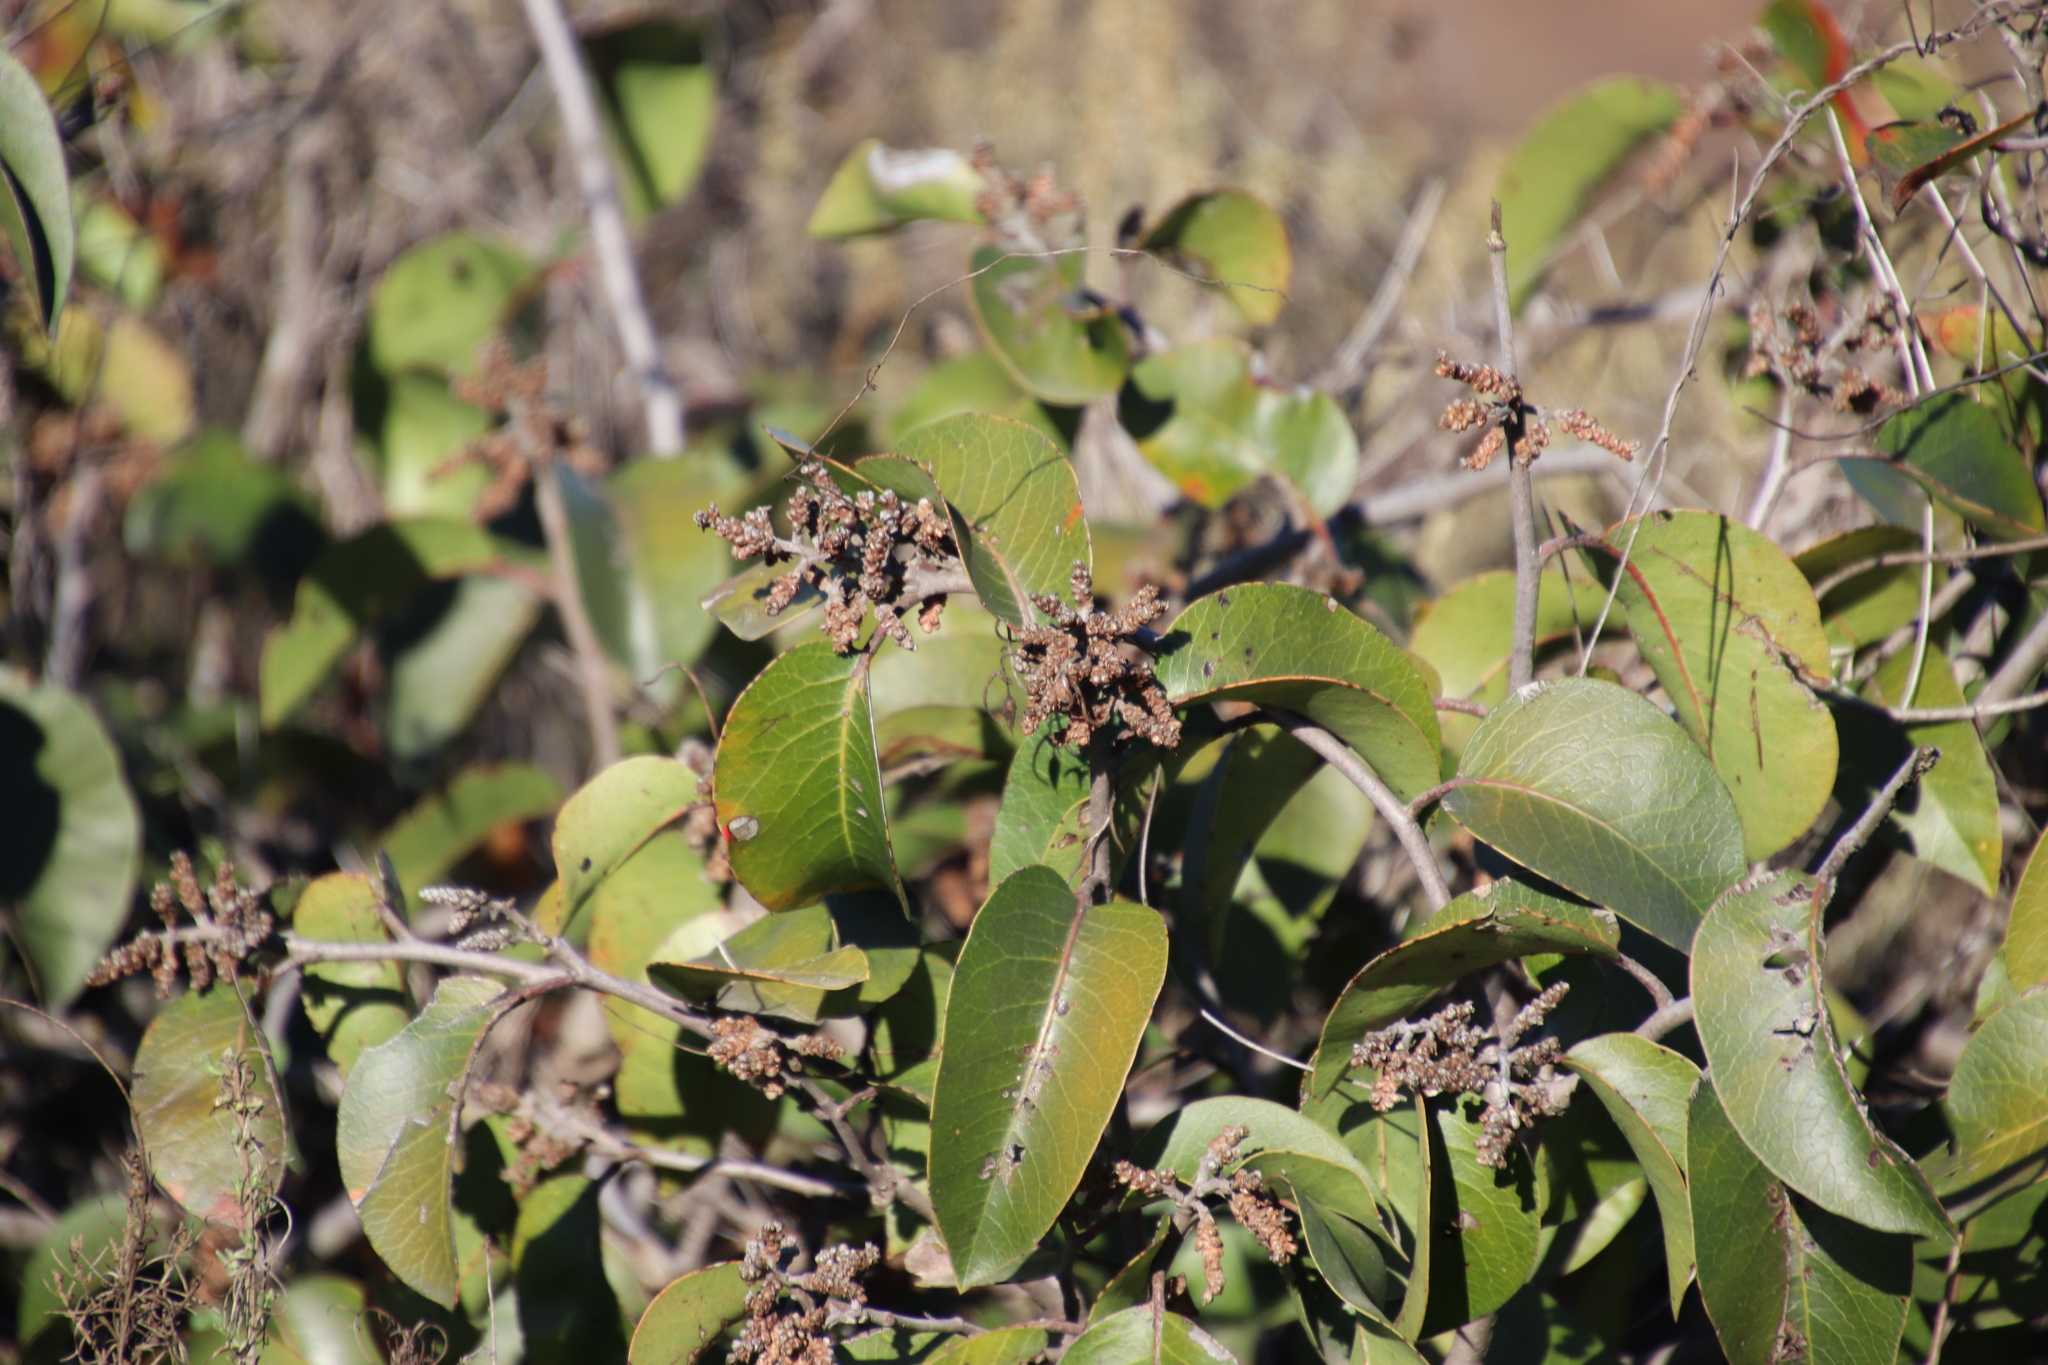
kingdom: Plantae
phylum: Tracheophyta
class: Magnoliopsida
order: Sapindales
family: Anacardiaceae
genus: Rhus
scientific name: Rhus ovata
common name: Sugar sumac
